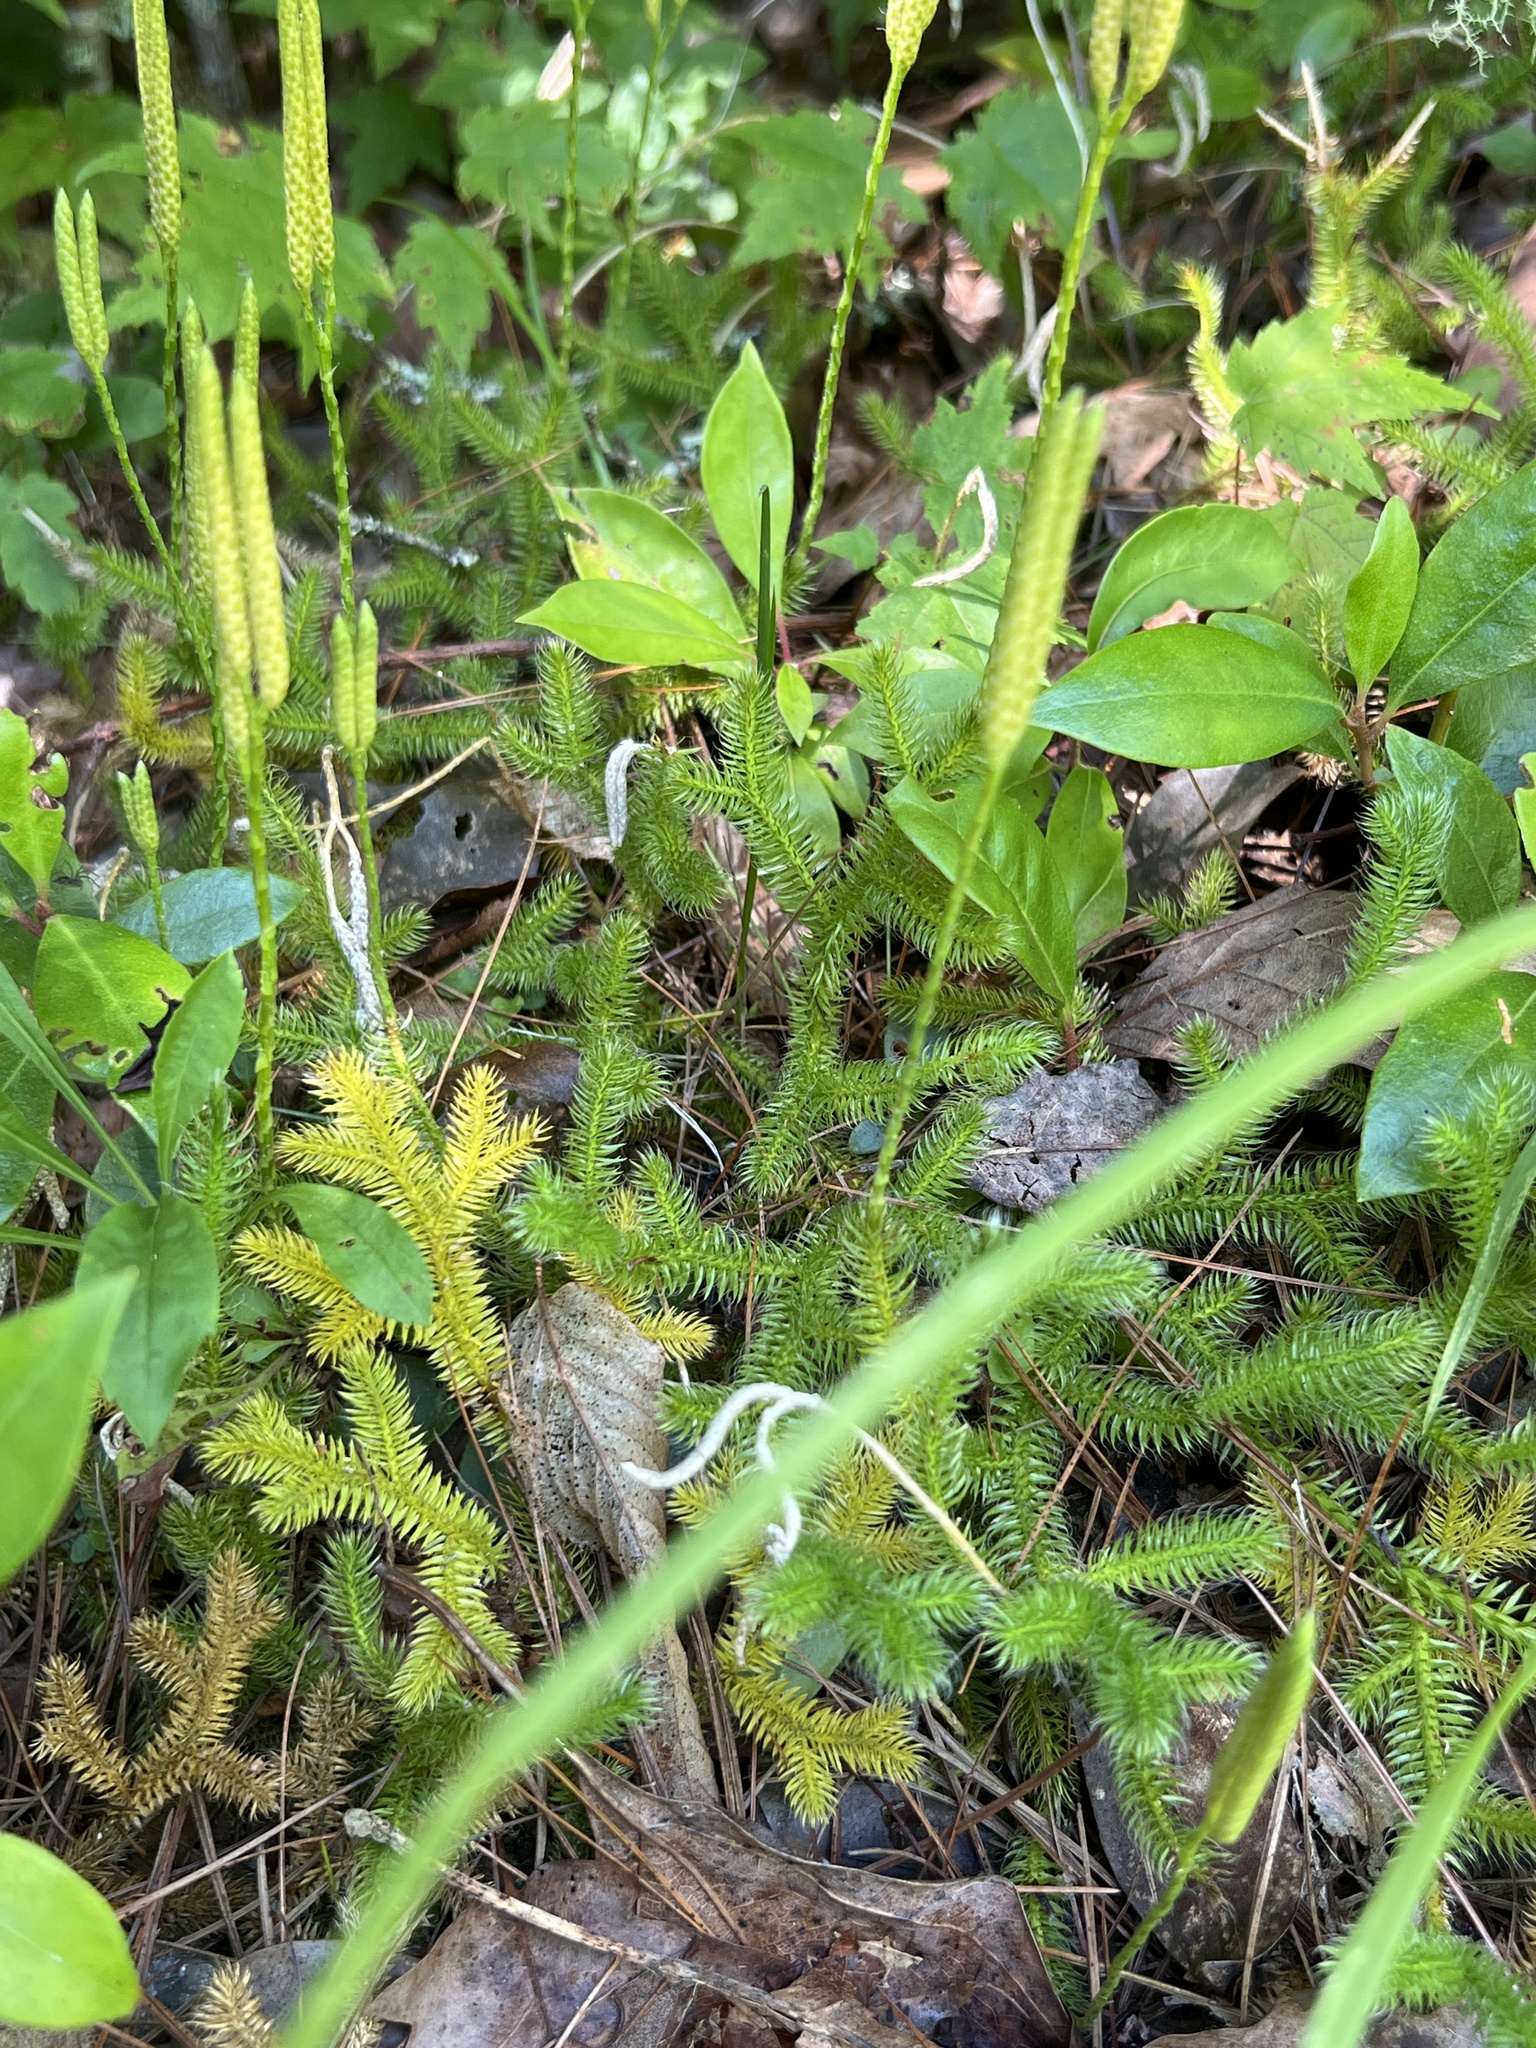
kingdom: Plantae
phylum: Tracheophyta
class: Lycopodiopsida
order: Lycopodiales
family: Lycopodiaceae
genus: Lycopodium
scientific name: Lycopodium clavatum
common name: Stag's-horn clubmoss
